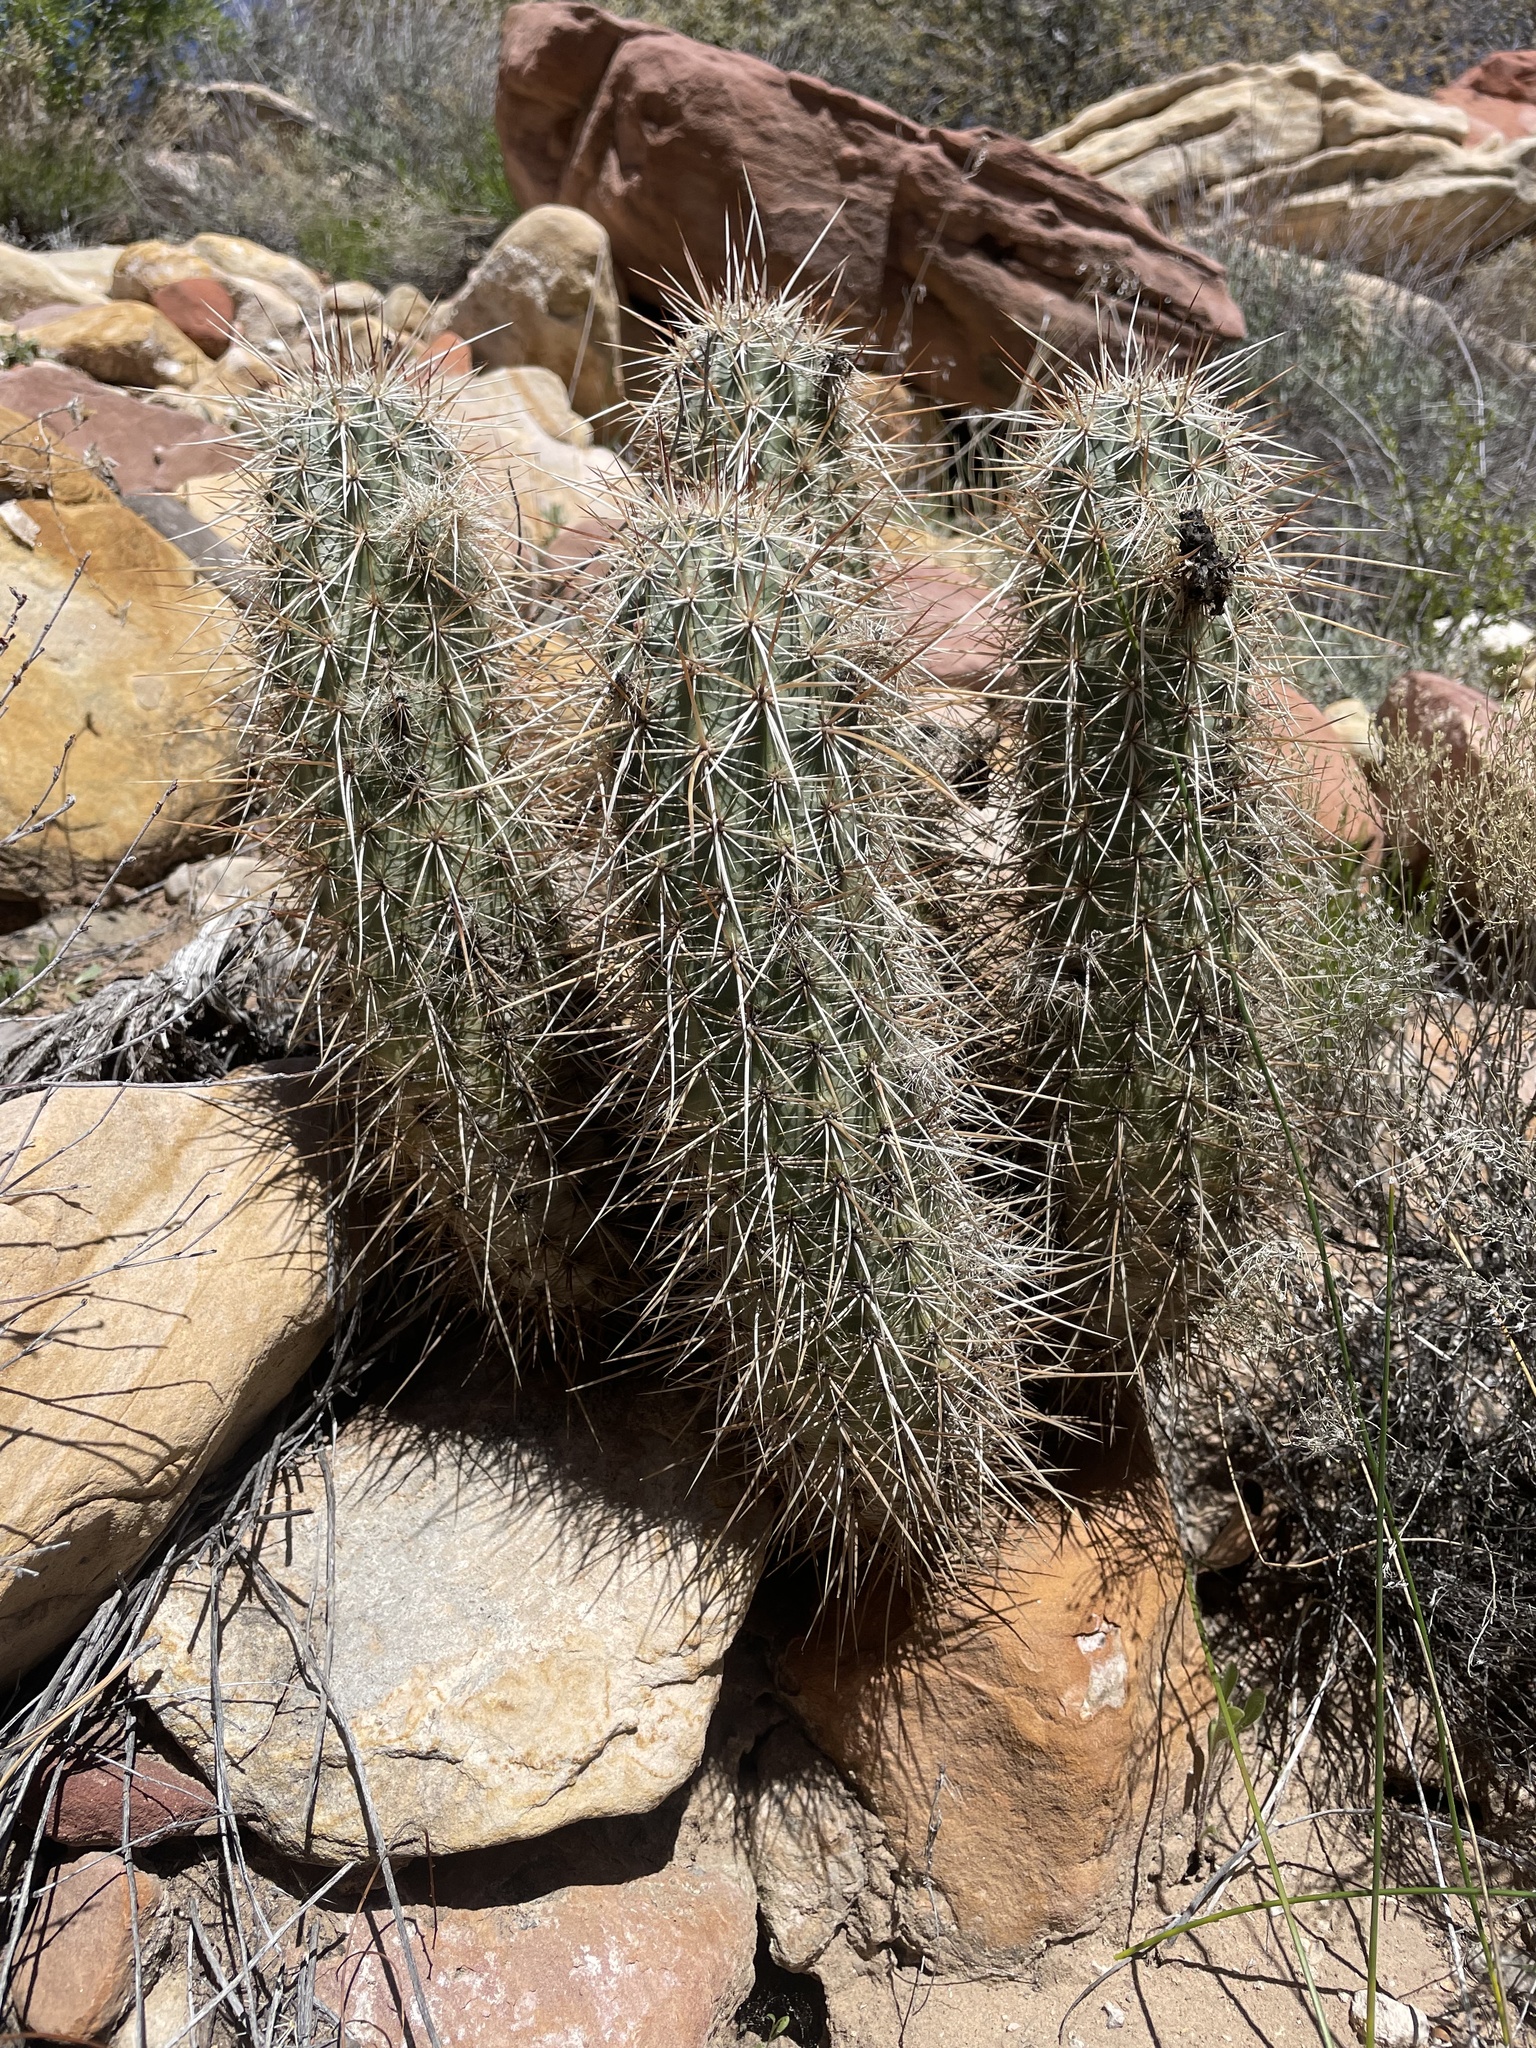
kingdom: Plantae
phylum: Tracheophyta
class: Magnoliopsida
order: Caryophyllales
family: Cactaceae
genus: Echinocereus
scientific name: Echinocereus engelmannii
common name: Engelmann's hedgehog cactus
